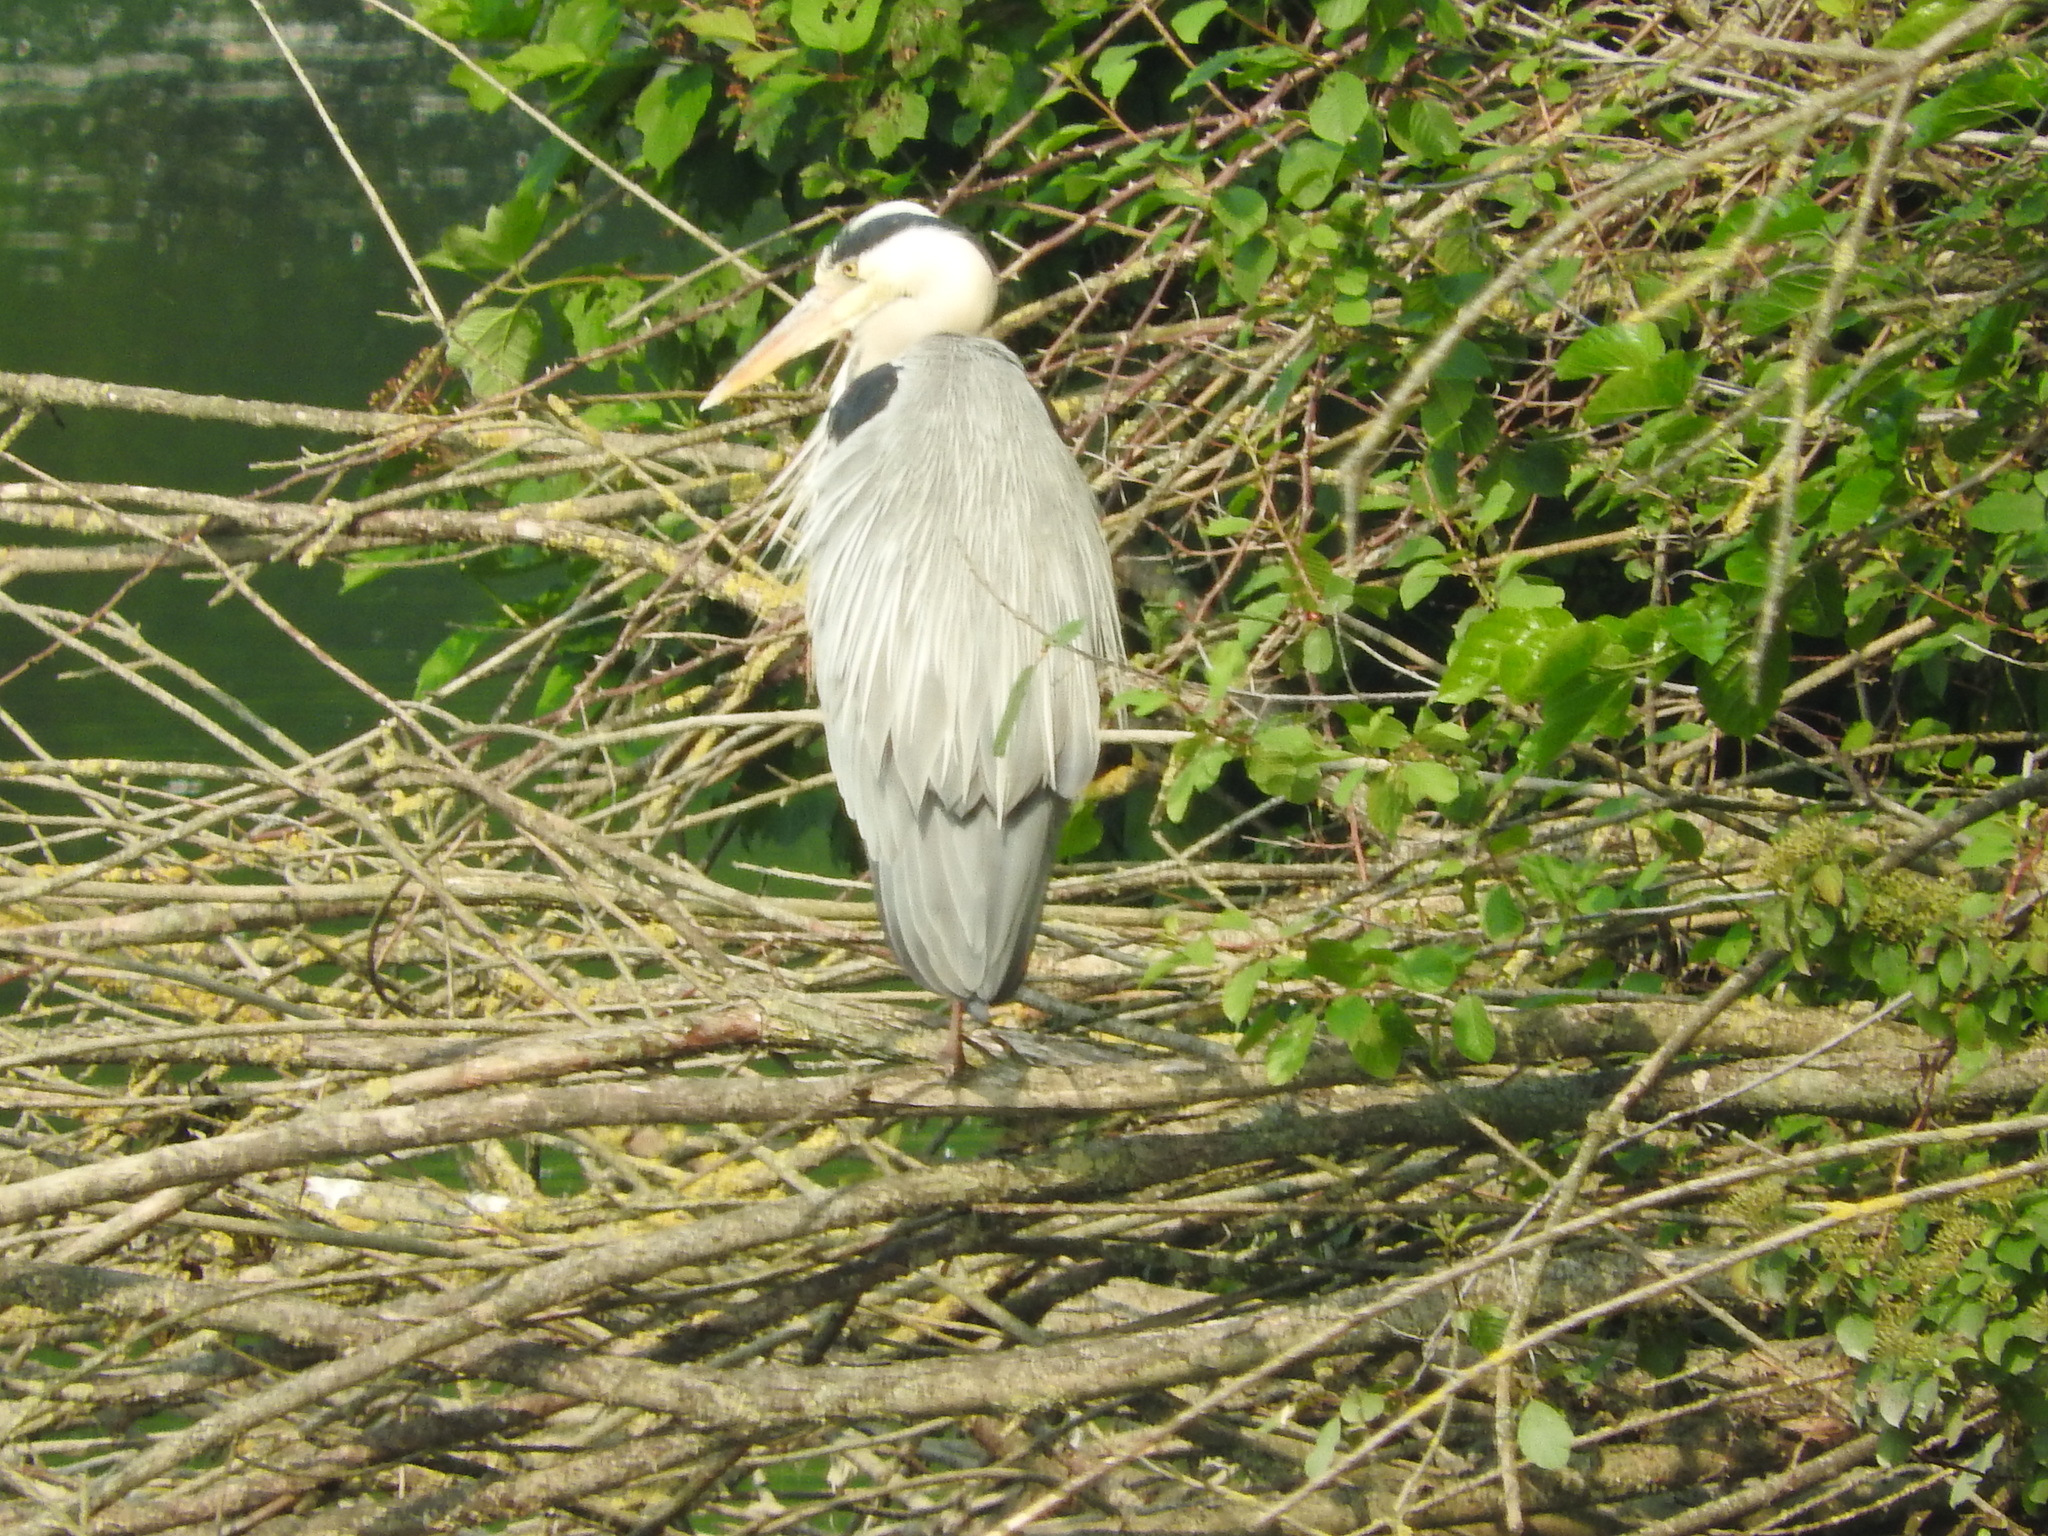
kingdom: Animalia
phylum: Chordata
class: Aves
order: Pelecaniformes
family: Ardeidae
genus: Ardea
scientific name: Ardea cinerea
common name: Grey heron
